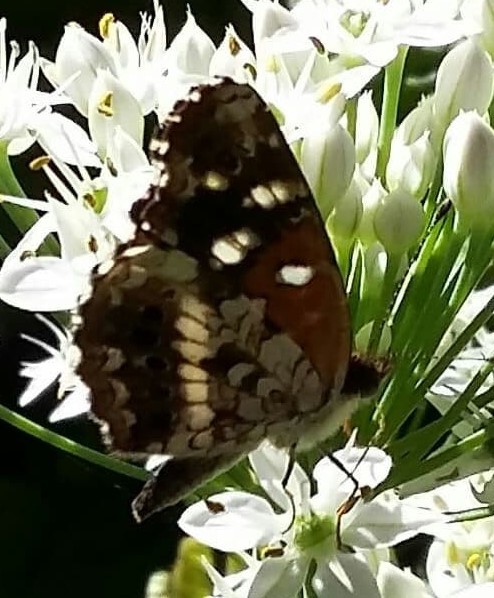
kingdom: Animalia
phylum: Arthropoda
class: Insecta
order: Lepidoptera
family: Nymphalidae
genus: Ortilia
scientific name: Ortilia ithra
